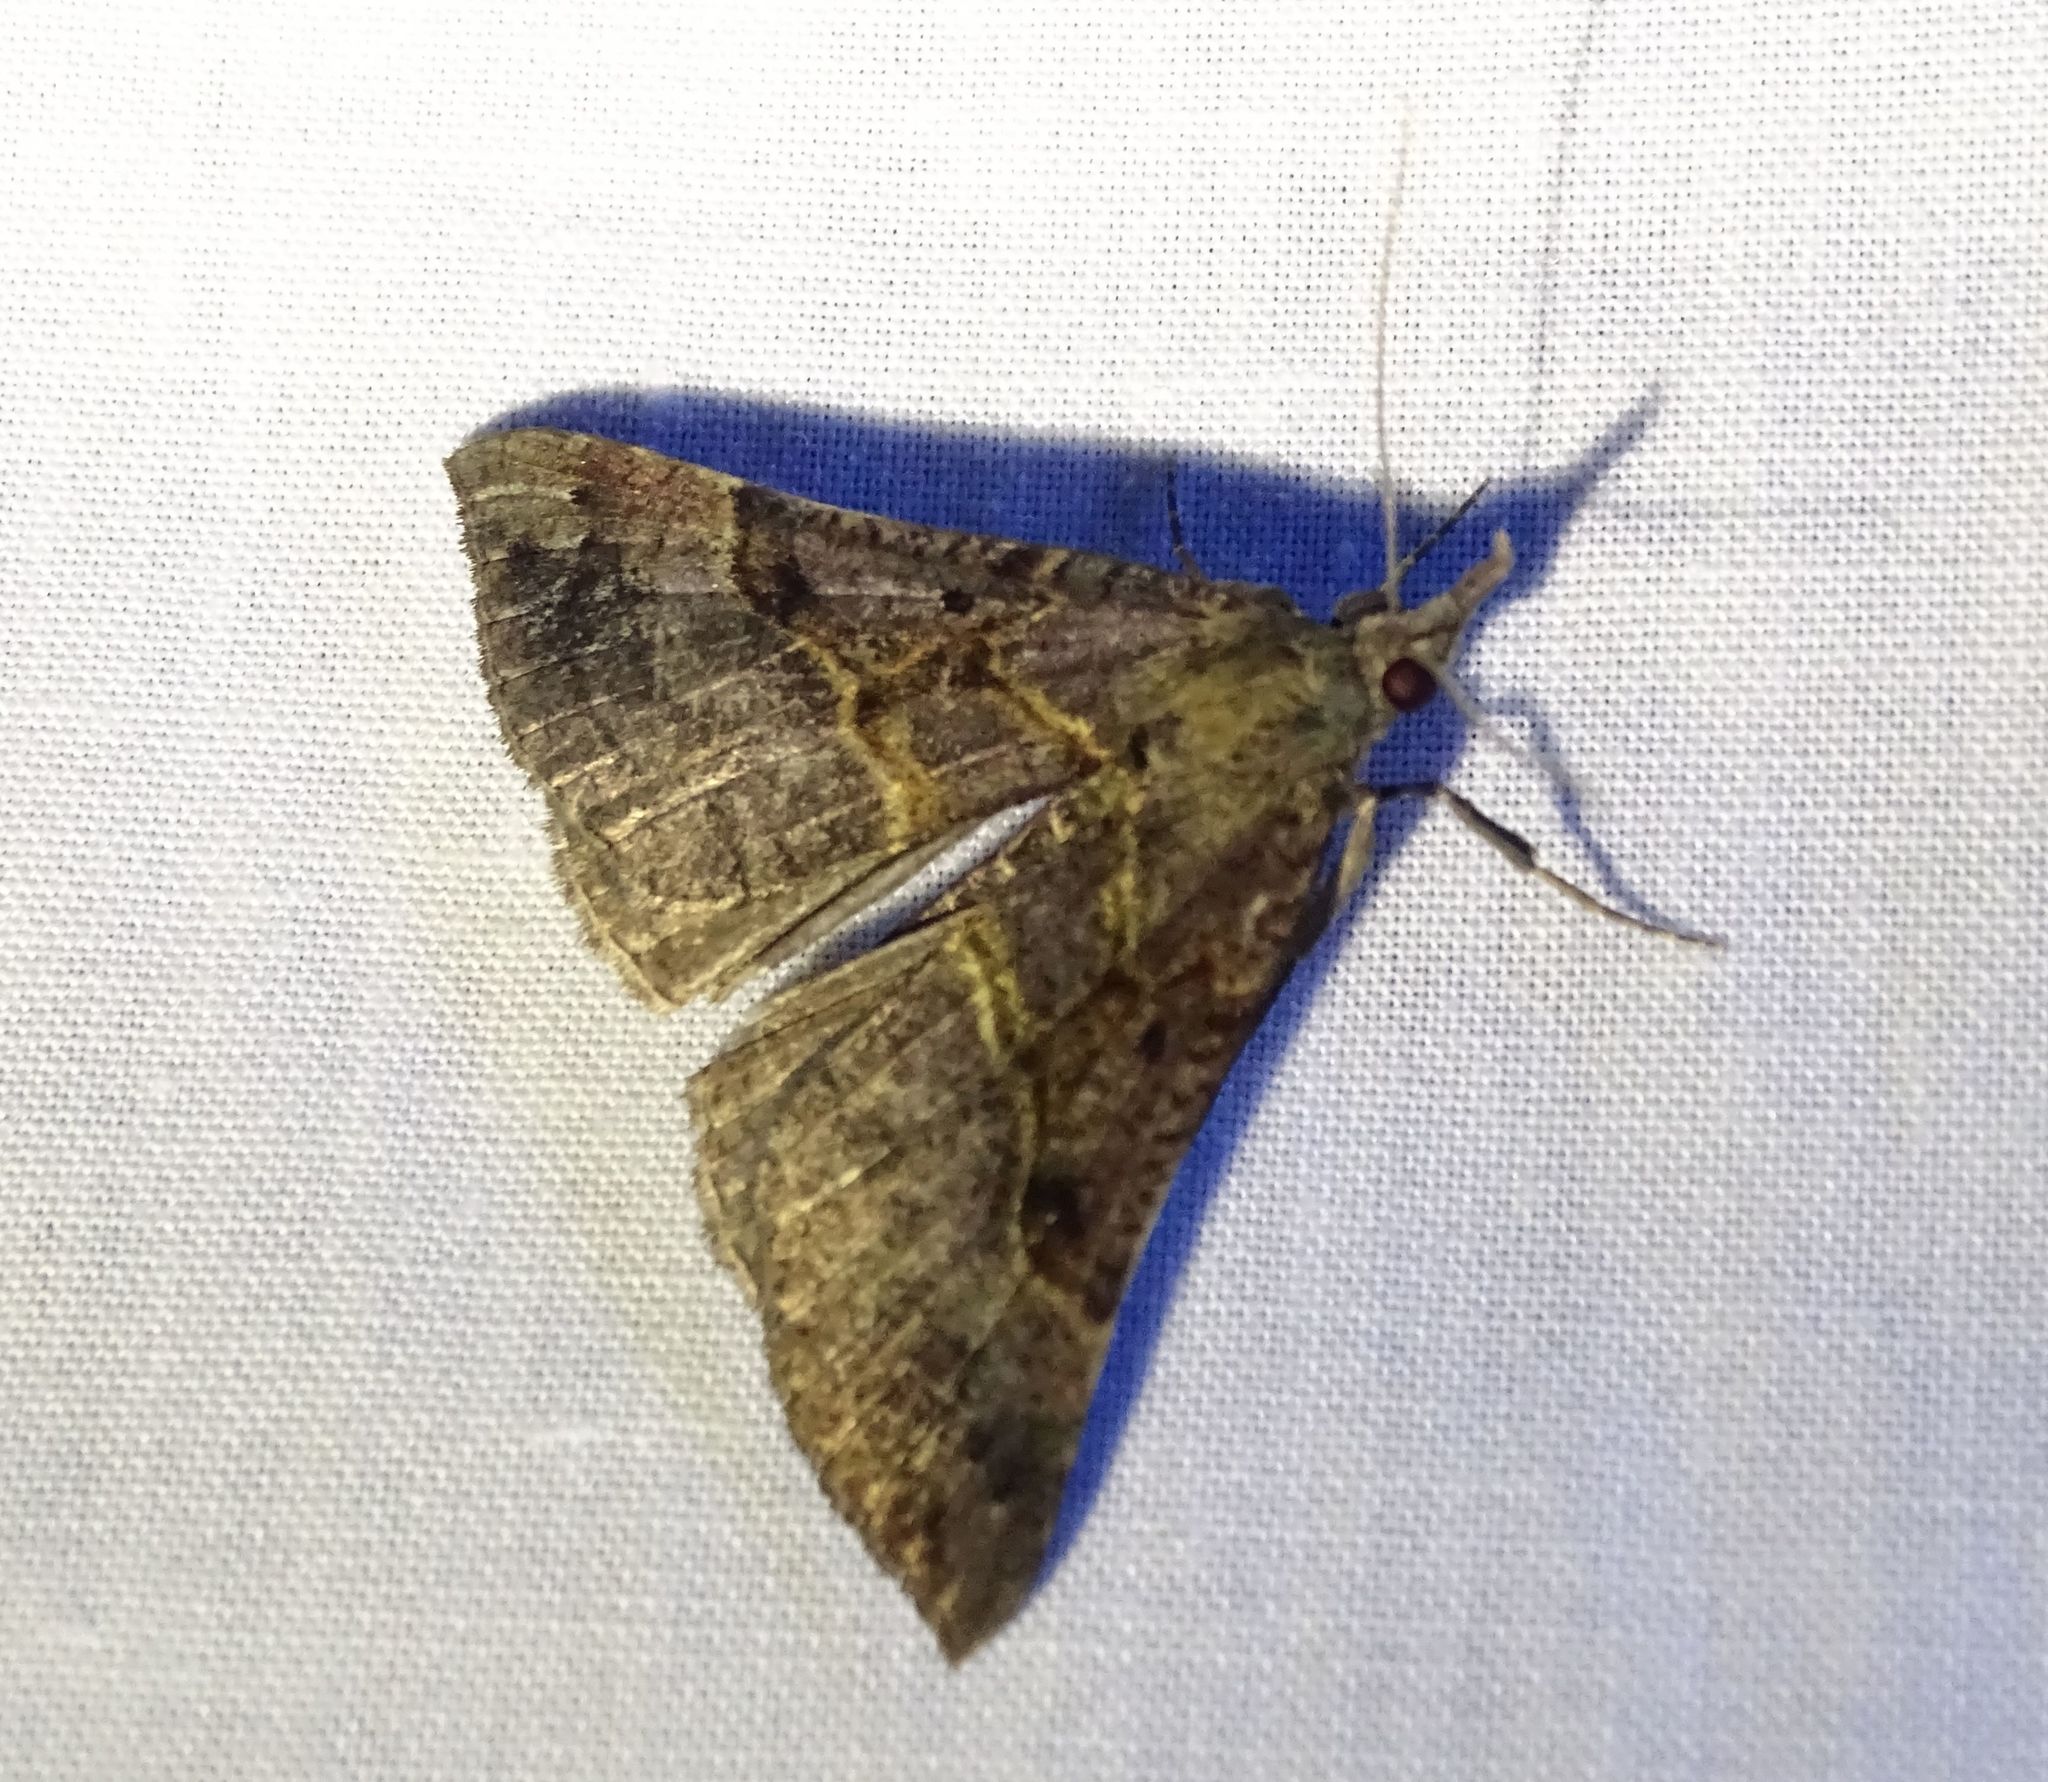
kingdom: Animalia
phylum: Arthropoda
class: Insecta
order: Lepidoptera
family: Erebidae
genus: Hypena
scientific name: Hypena deceptalis
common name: Deceptive snout
